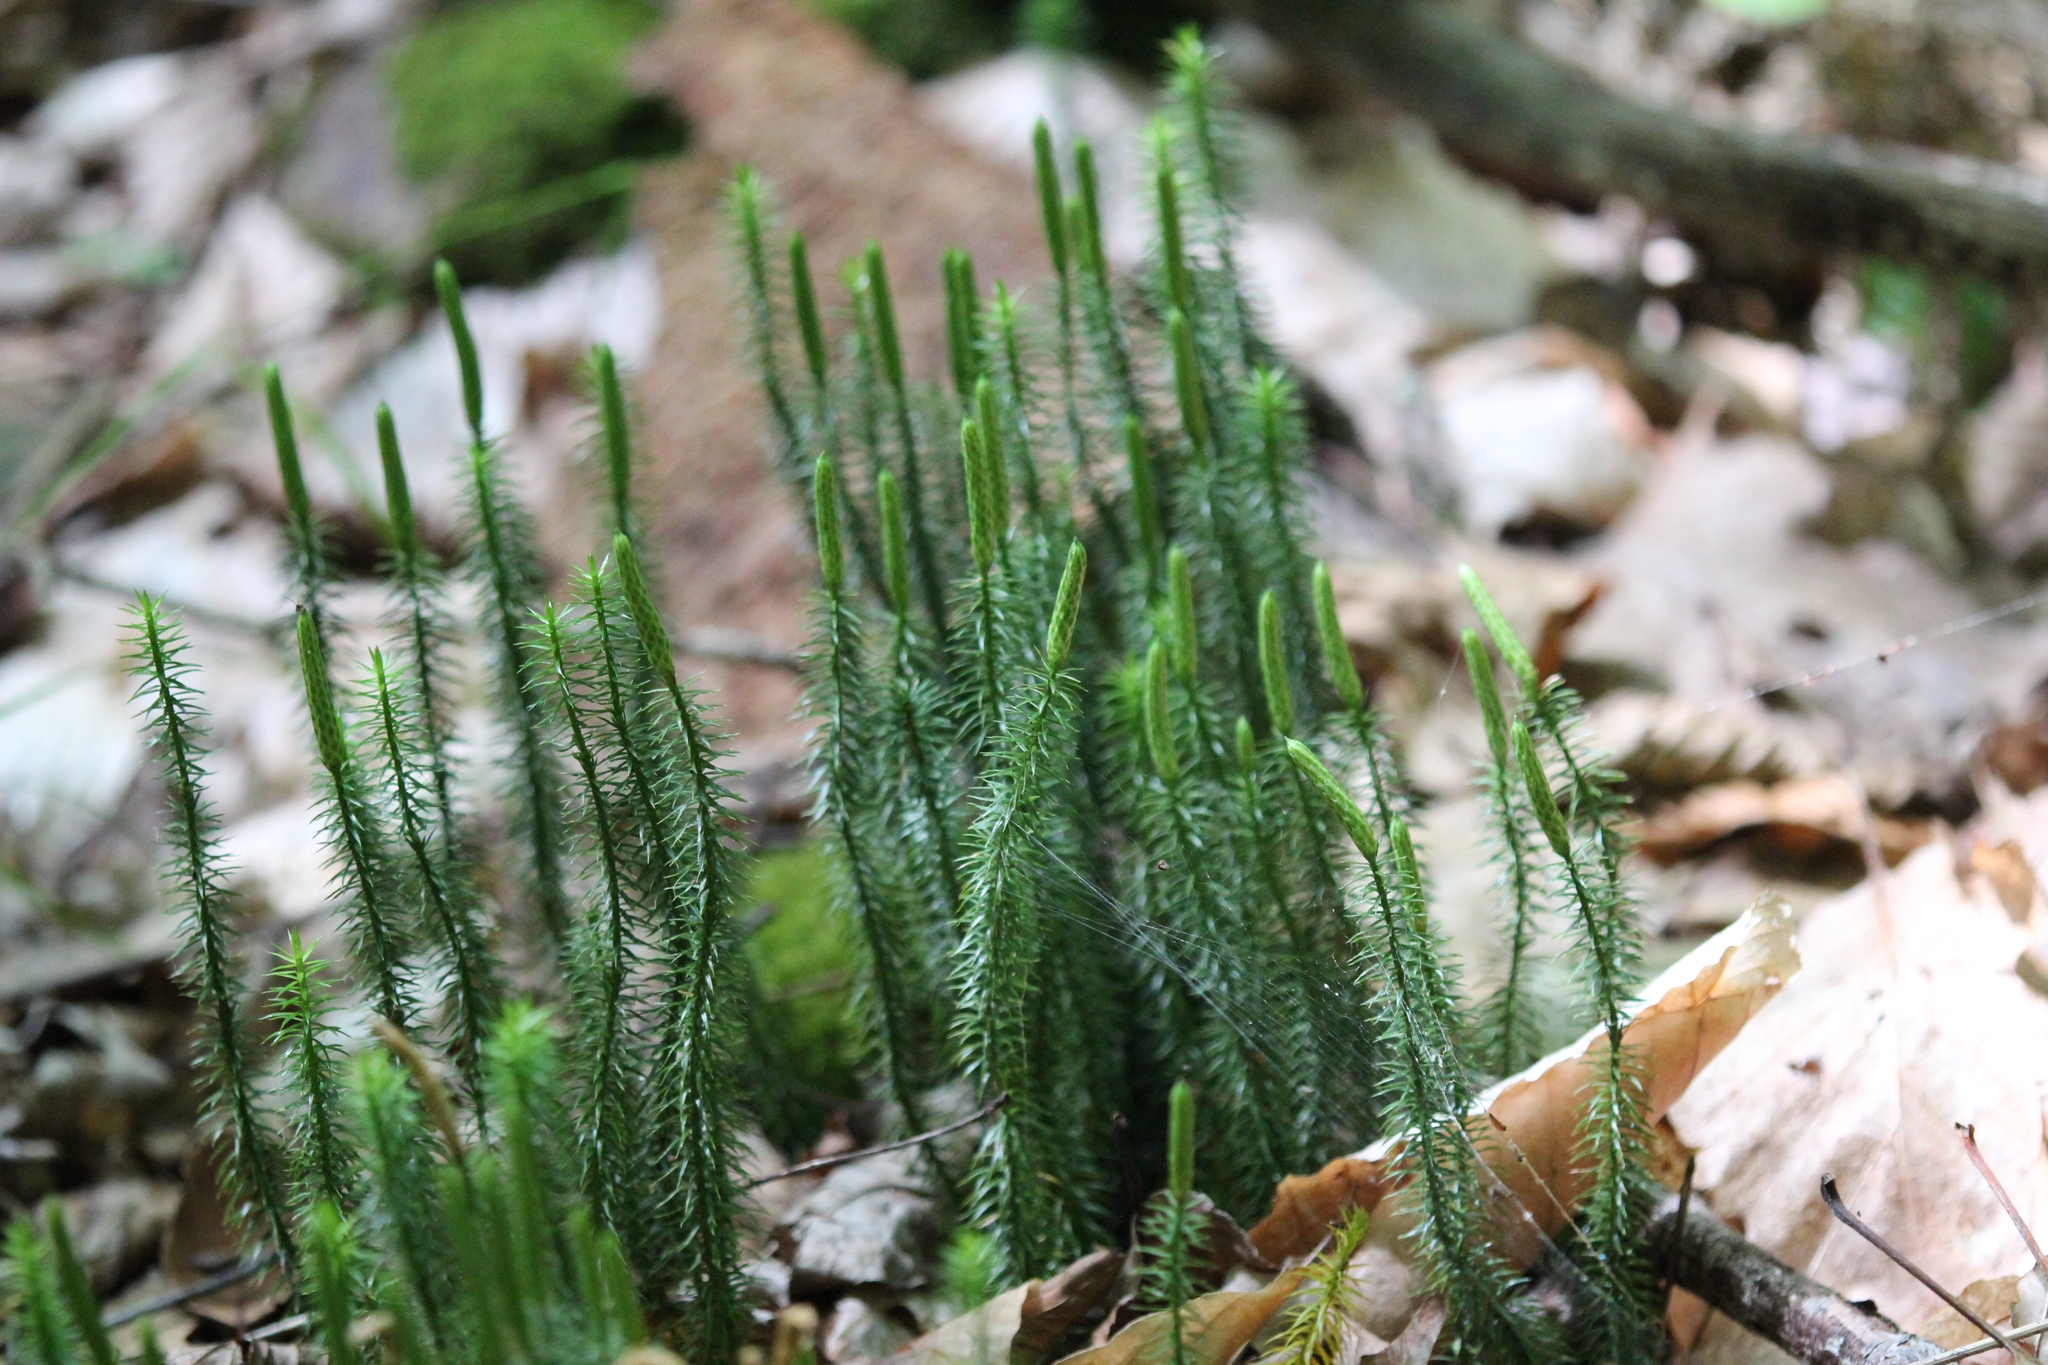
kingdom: Plantae
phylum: Tracheophyta
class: Lycopodiopsida
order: Lycopodiales
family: Lycopodiaceae
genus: Spinulum
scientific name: Spinulum annotinum
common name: Interrupted club-moss
